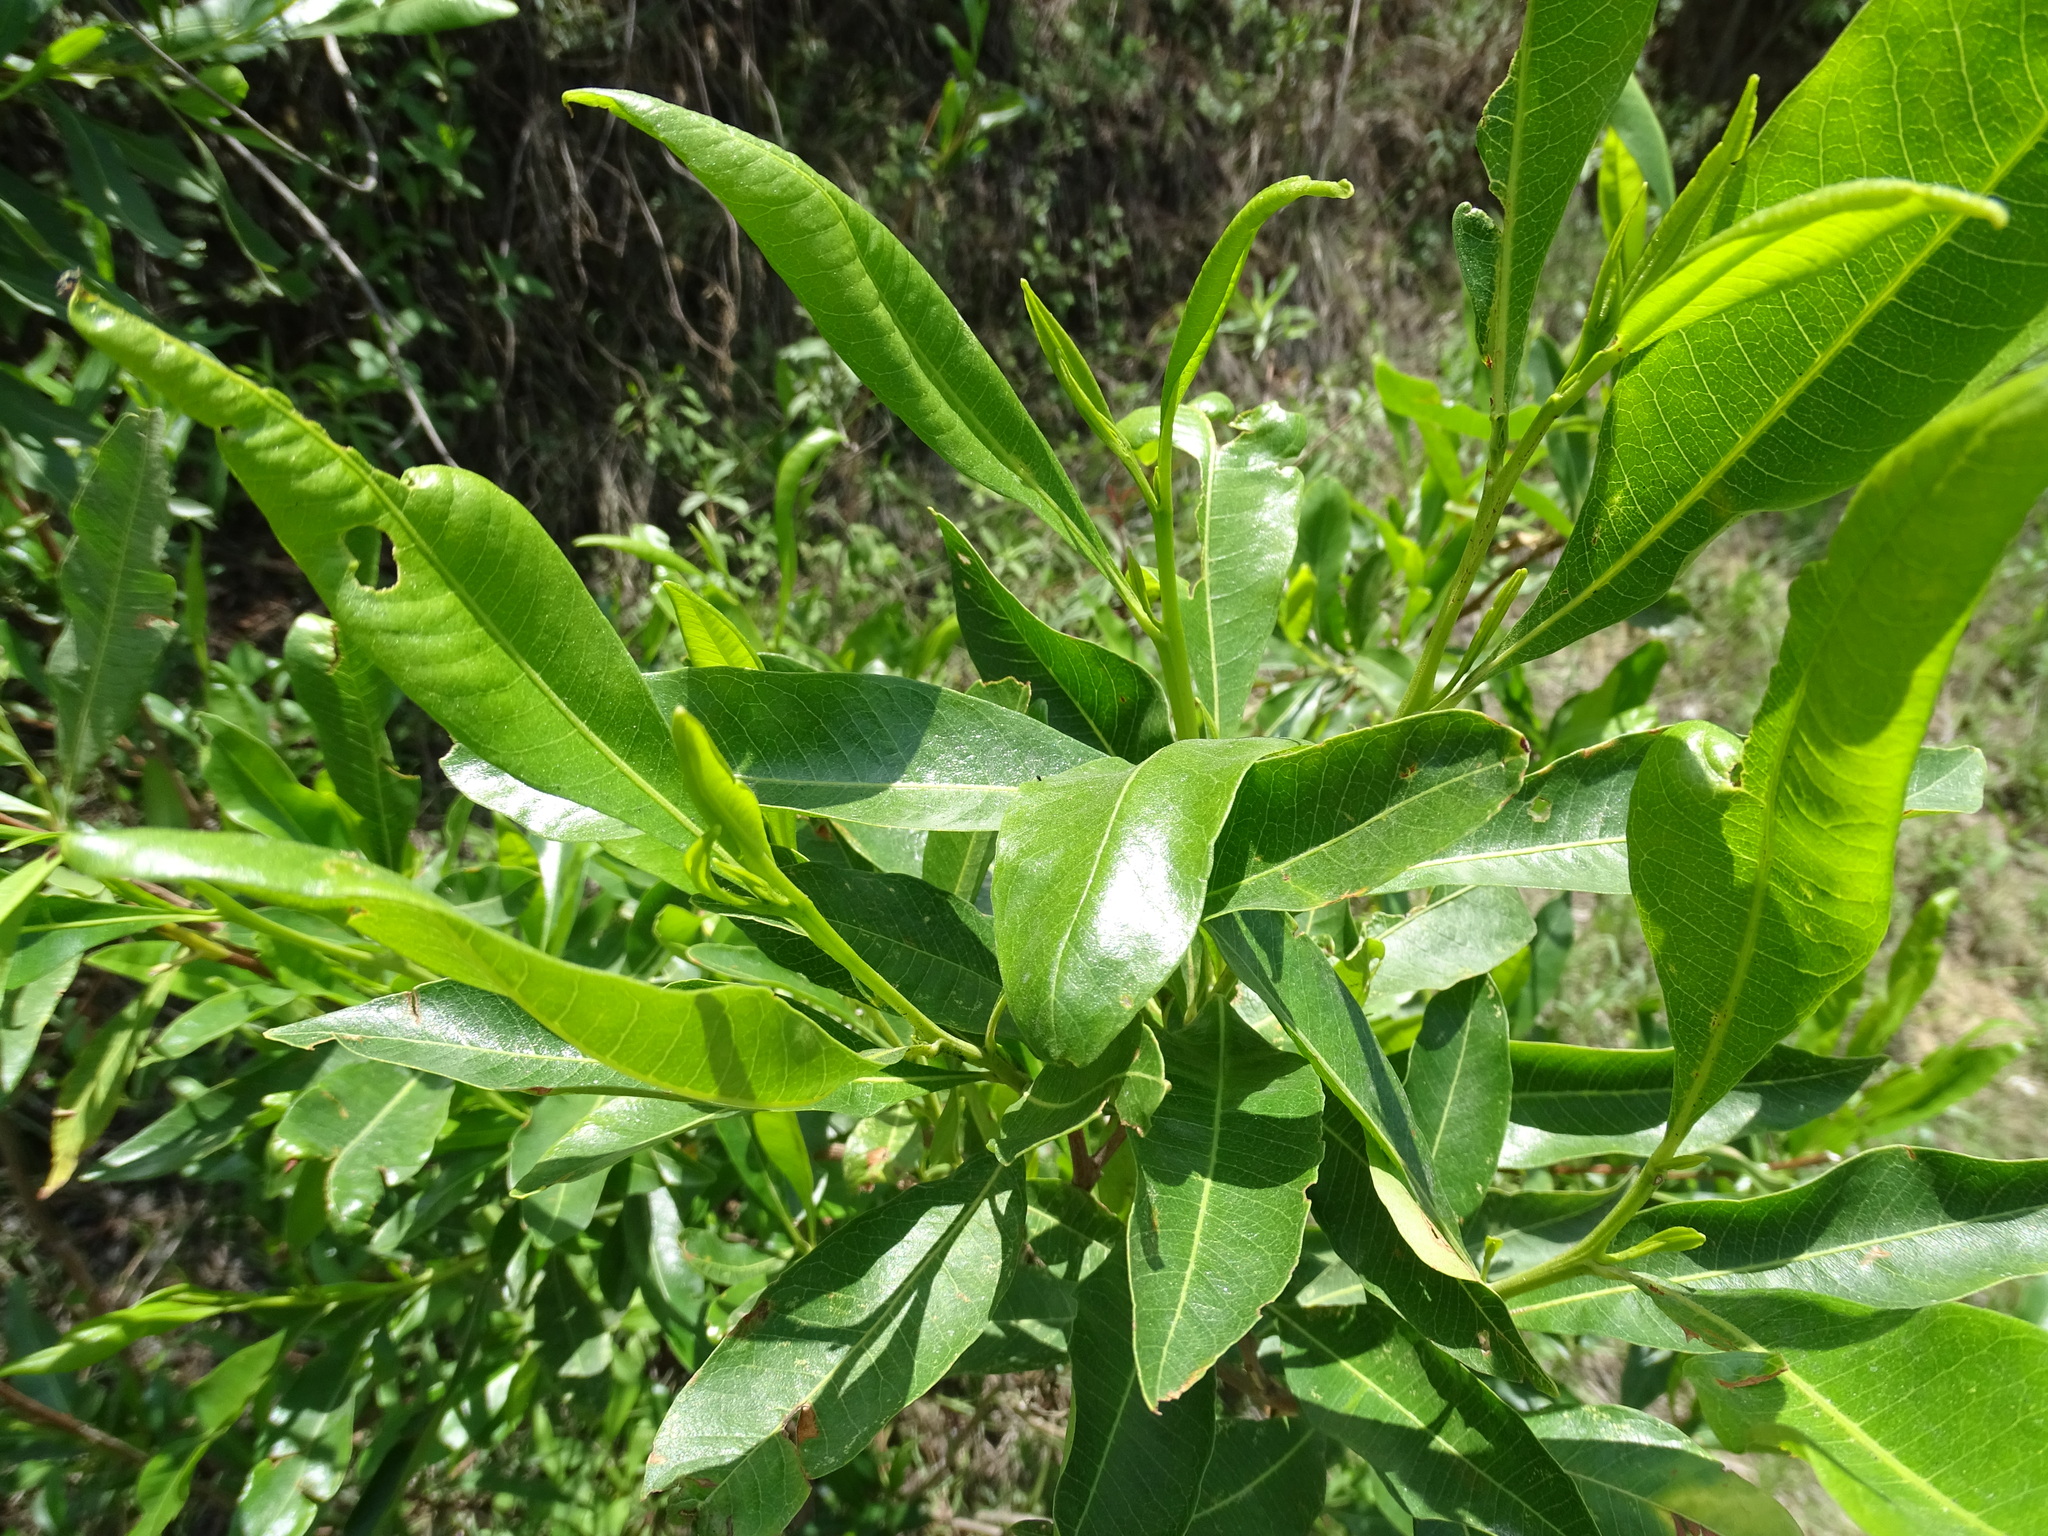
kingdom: Plantae
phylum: Tracheophyta
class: Magnoliopsida
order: Sapindales
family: Sapindaceae
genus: Dodonaea
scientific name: Dodonaea viscosa
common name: Hopbush
